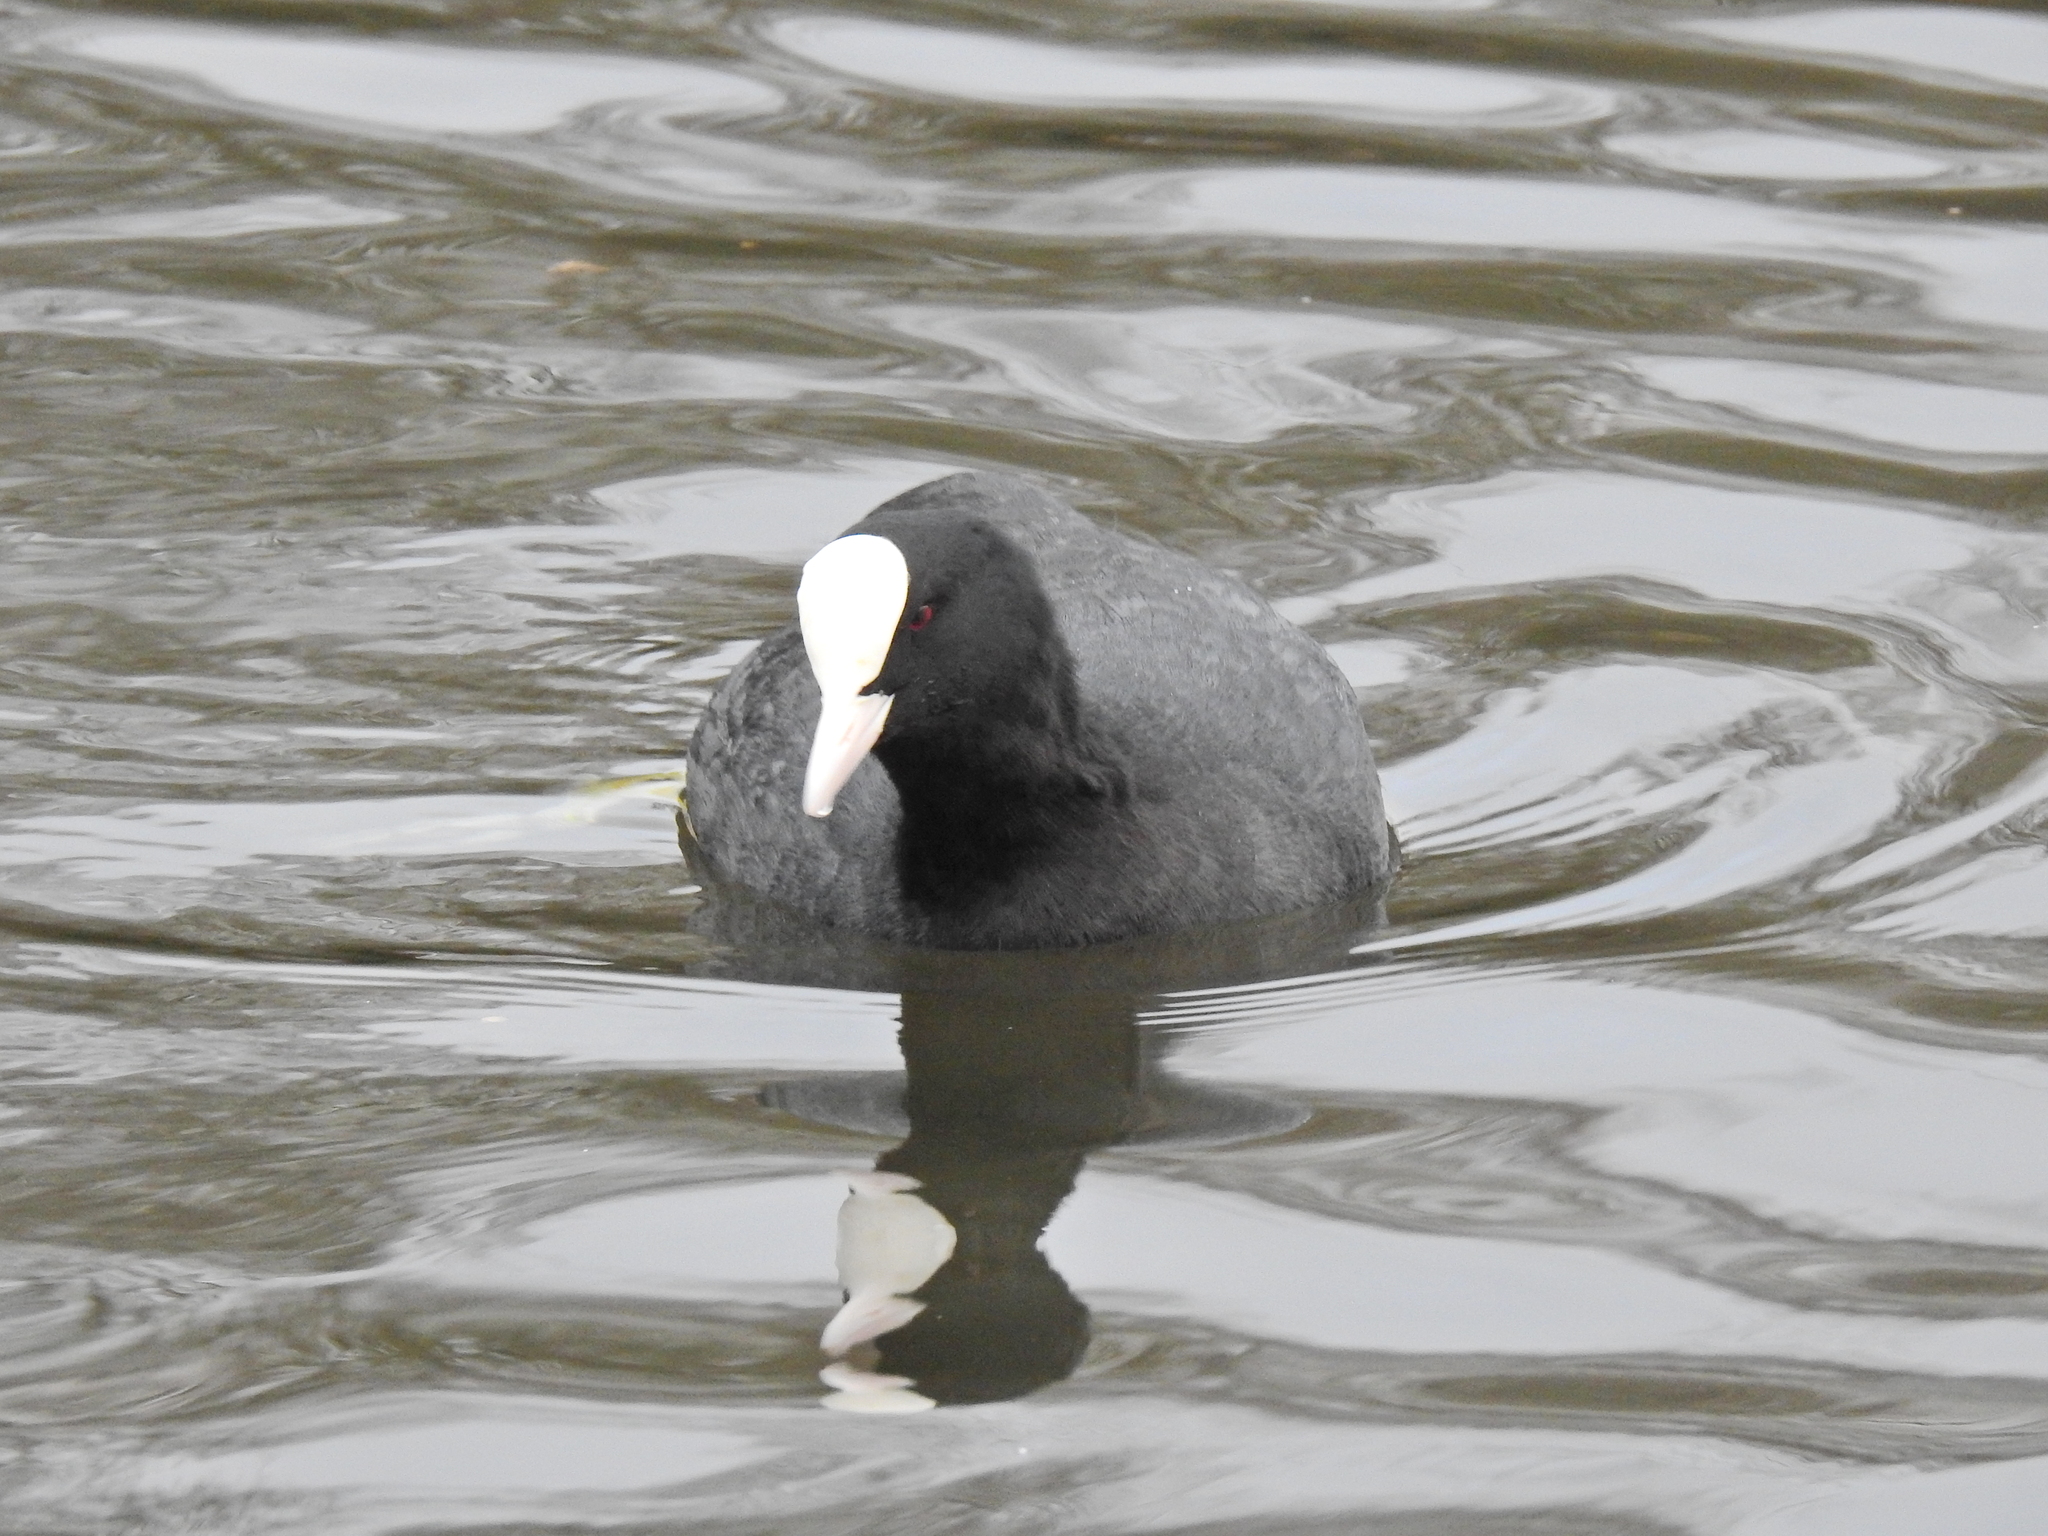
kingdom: Animalia
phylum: Chordata
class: Aves
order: Gruiformes
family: Rallidae
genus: Fulica
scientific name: Fulica atra
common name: Eurasian coot
